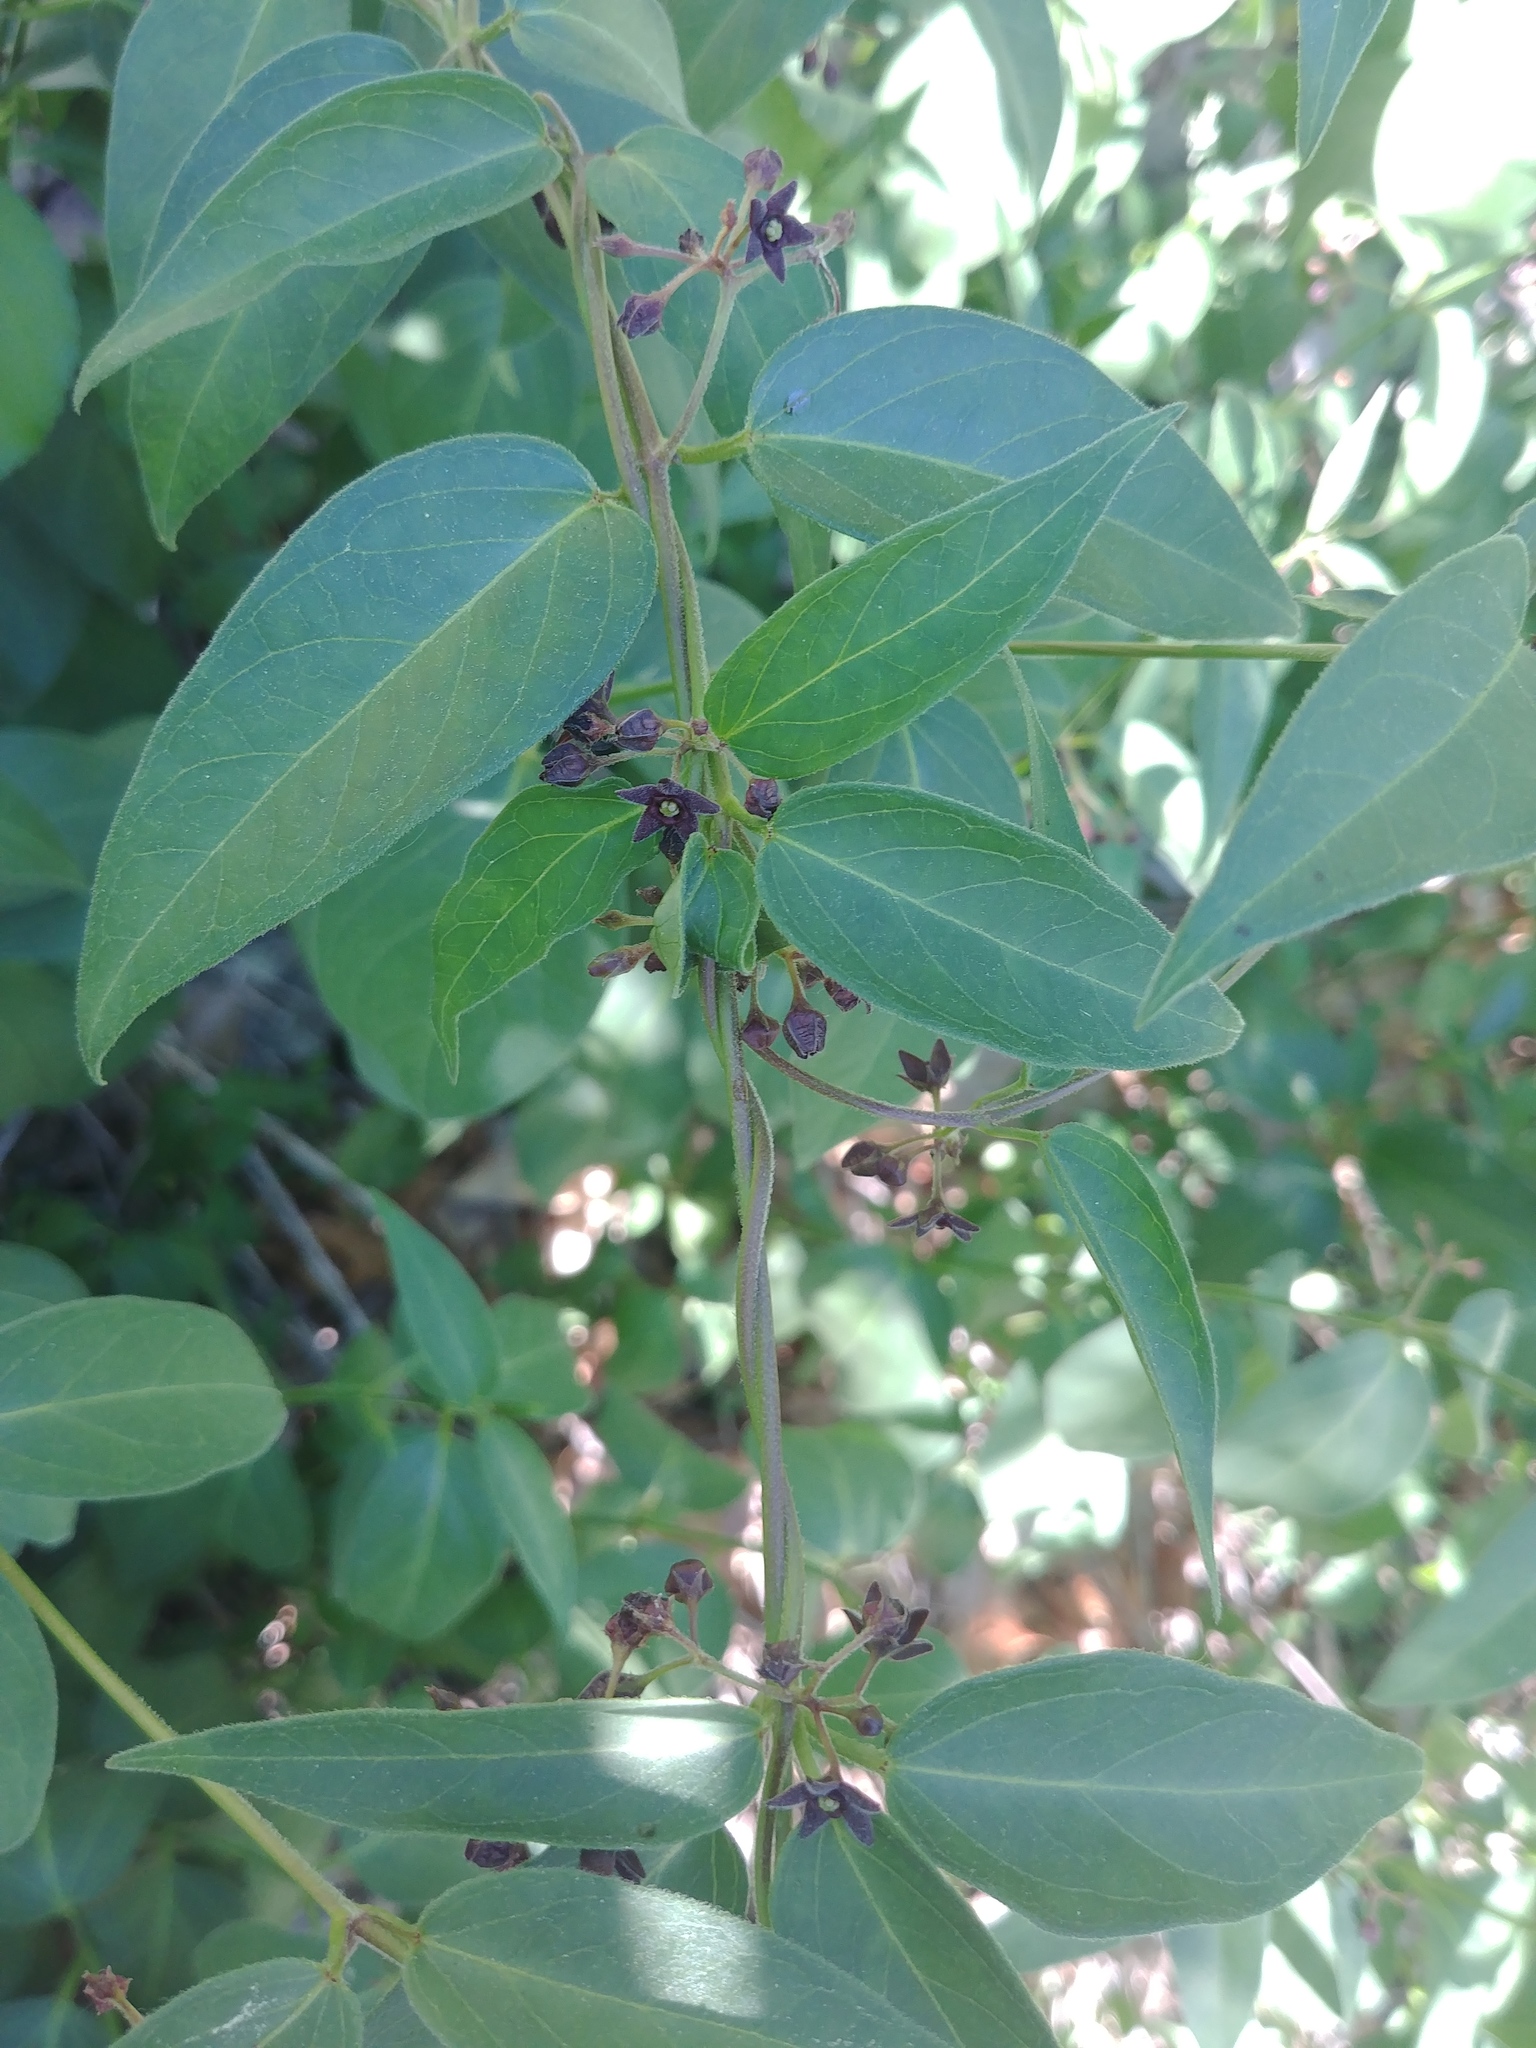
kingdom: Plantae
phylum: Tracheophyta
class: Magnoliopsida
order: Gentianales
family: Apocynaceae
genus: Vincetoxicum
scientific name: Vincetoxicum nigrum
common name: Black swallow-wort
